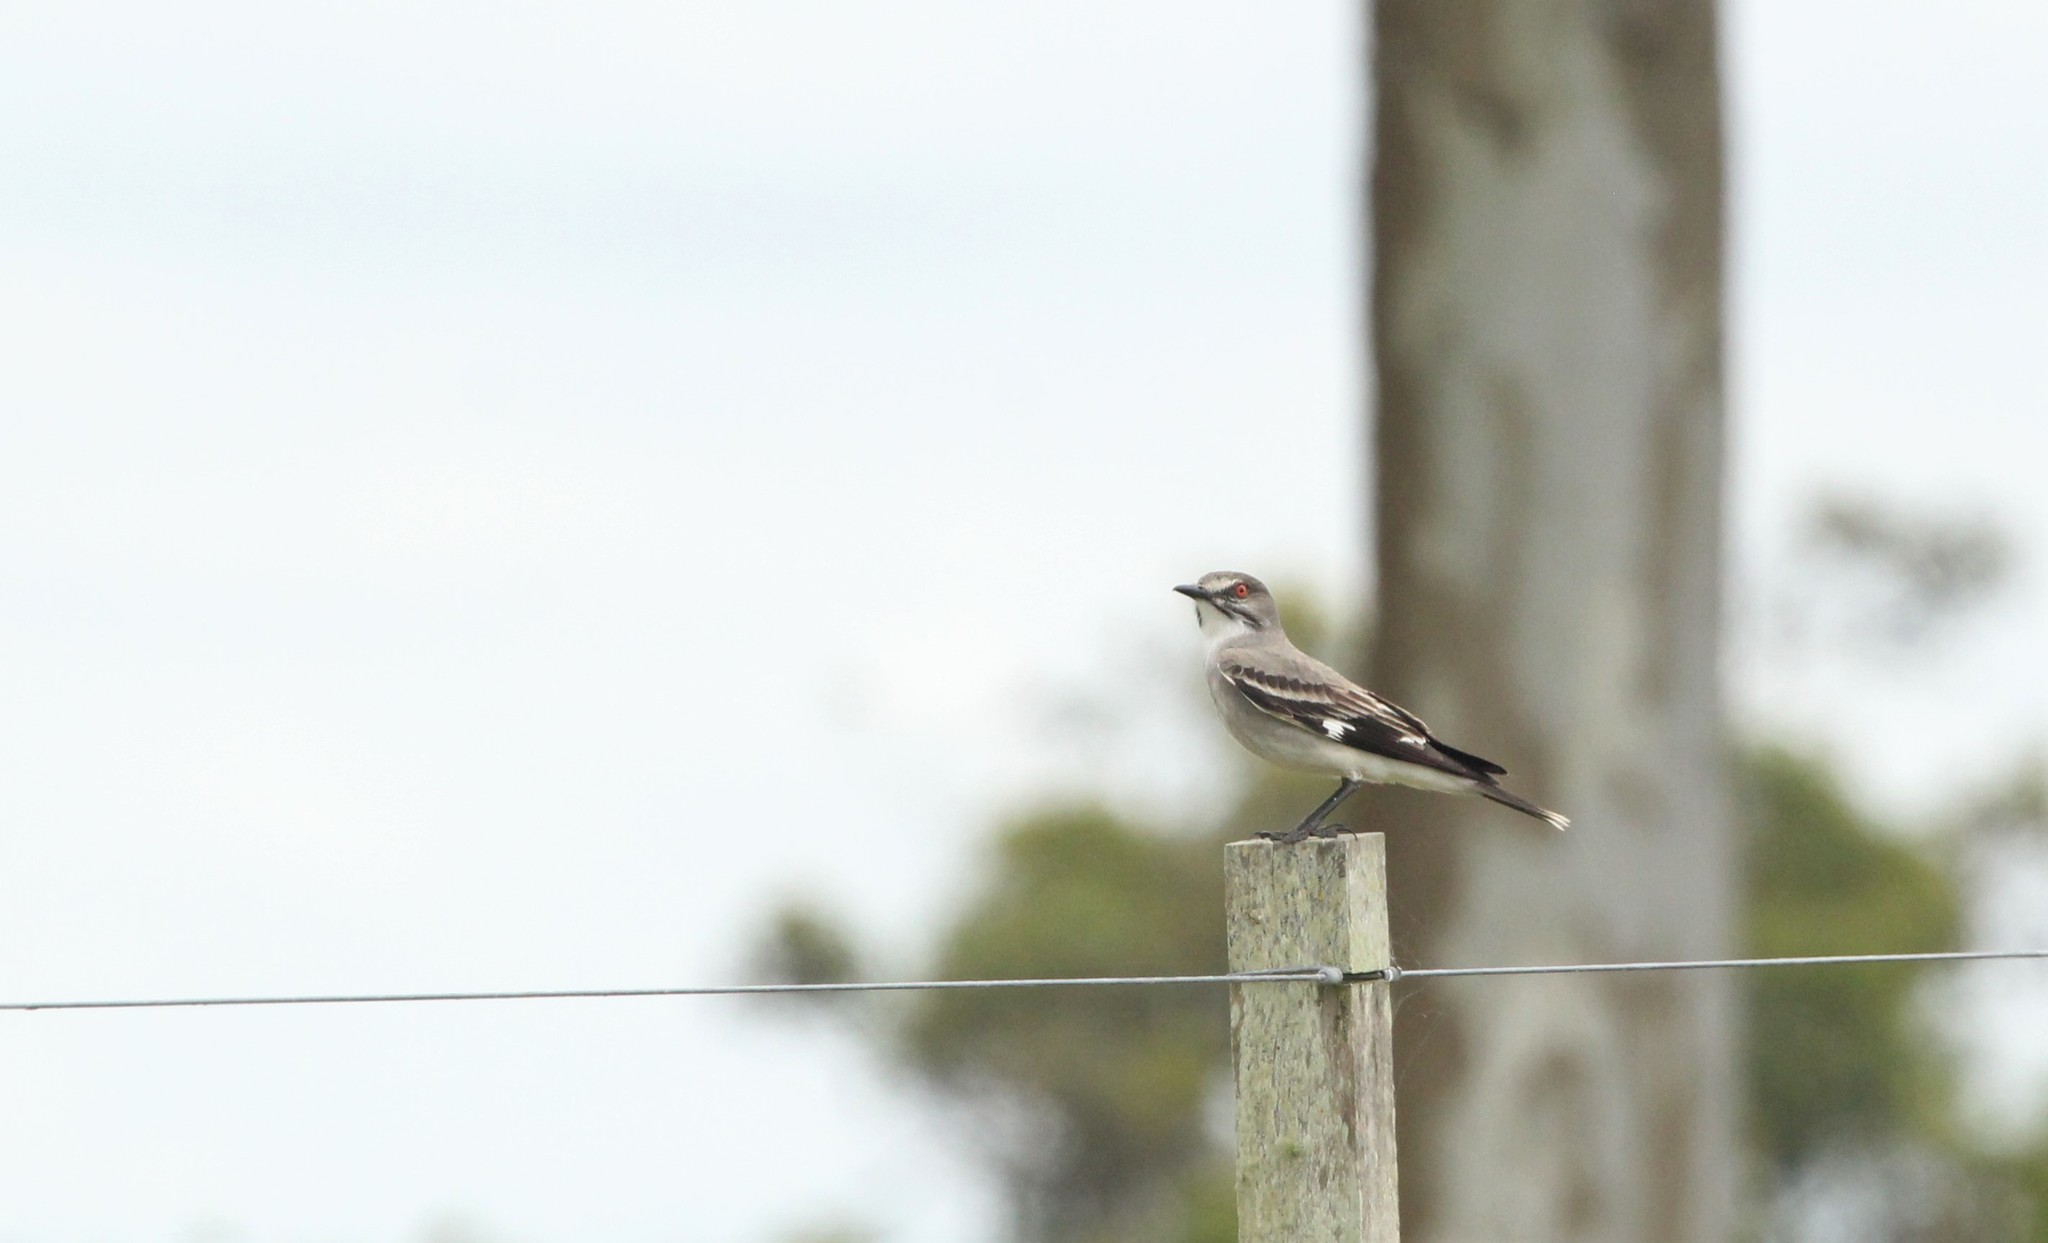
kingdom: Animalia
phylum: Chordata
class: Aves
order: Passeriformes
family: Tyrannidae
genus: Xolmis
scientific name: Xolmis cinereus
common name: Grey monjita
